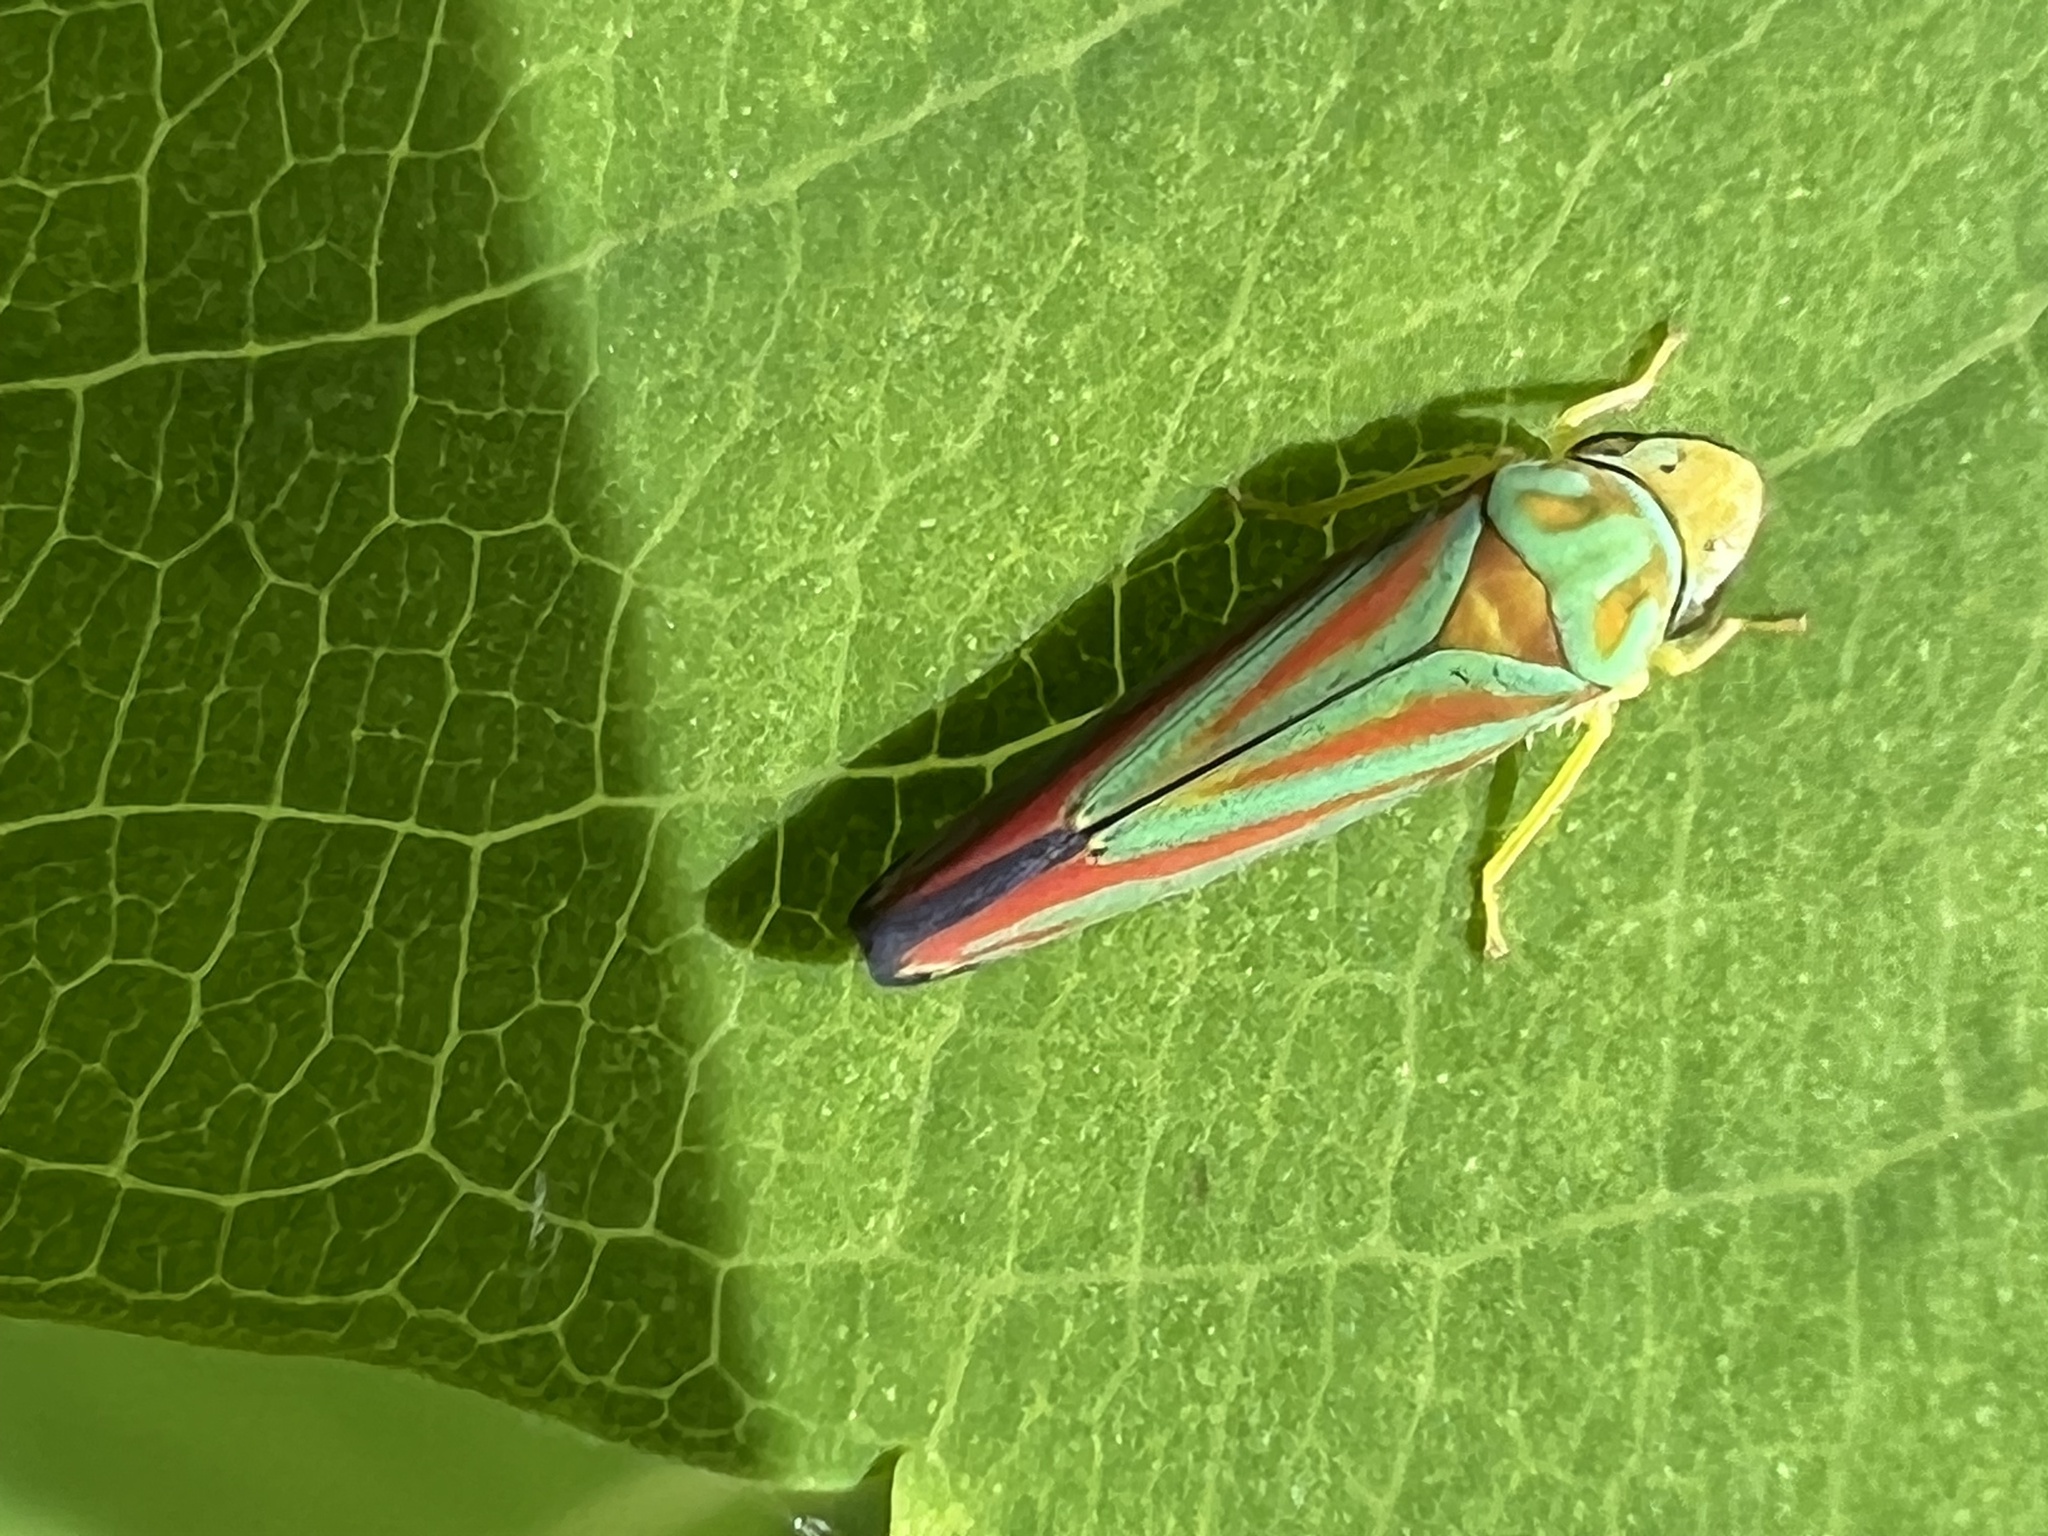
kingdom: Animalia
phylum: Arthropoda
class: Insecta
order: Hemiptera
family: Cicadellidae
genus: Graphocephala
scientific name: Graphocephala coccinea
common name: Candy-striped leafhopper
